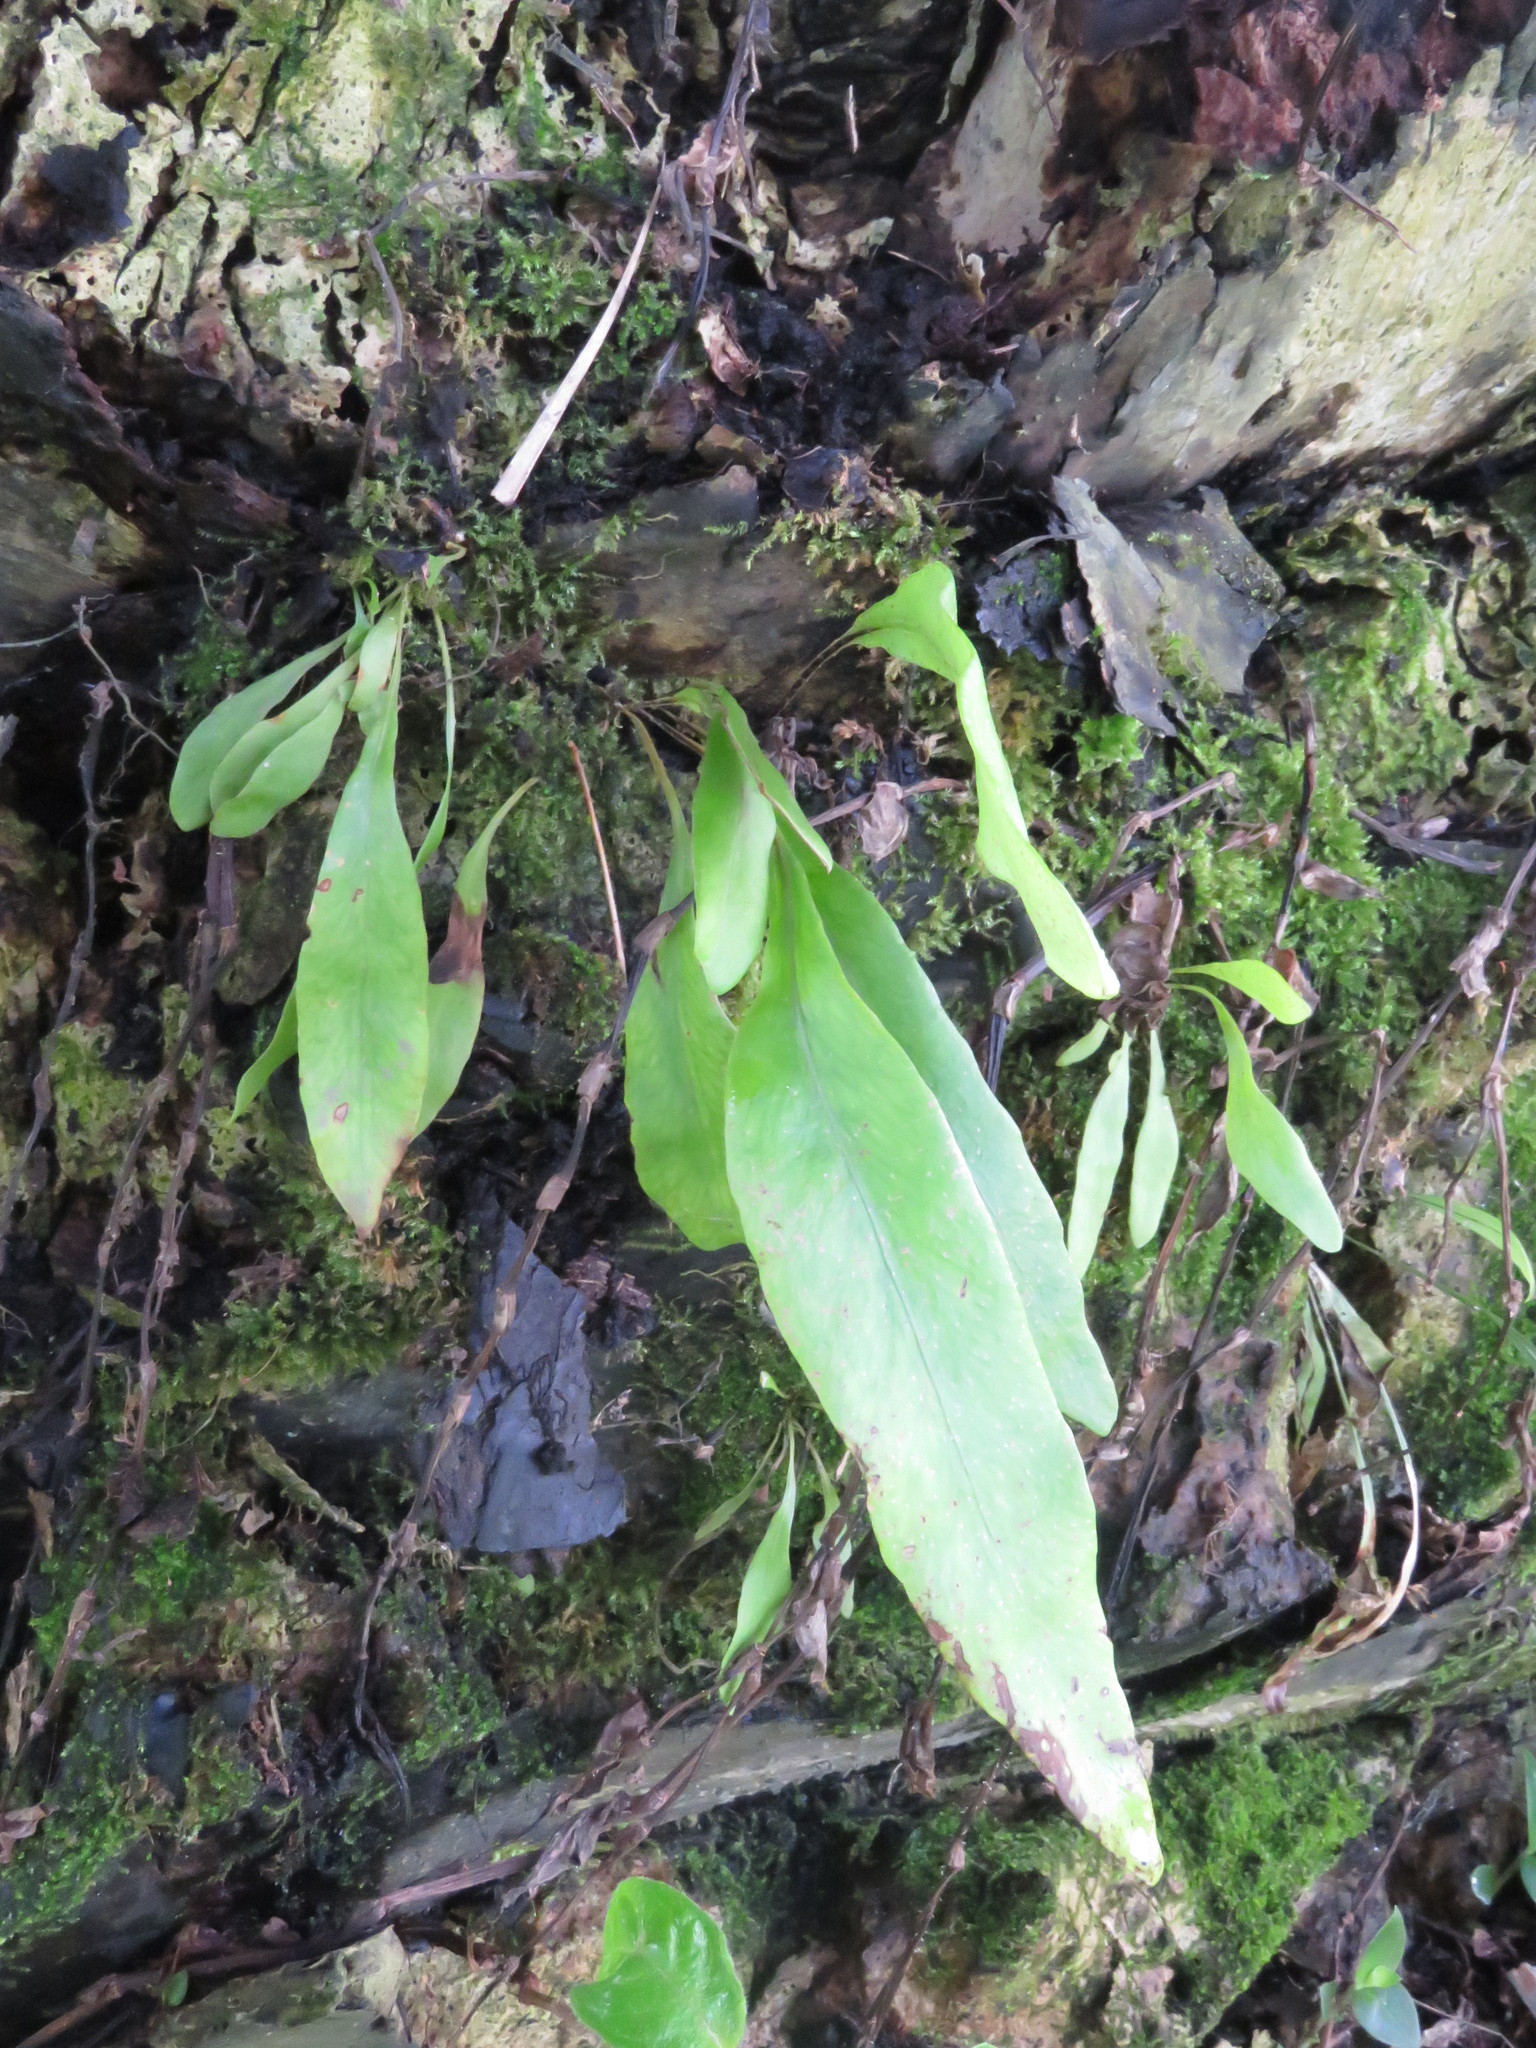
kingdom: Plantae
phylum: Tracheophyta
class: Polypodiopsida
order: Polypodiales
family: Polypodiaceae
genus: Pleopeltis
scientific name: Pleopeltis macrocarpa
